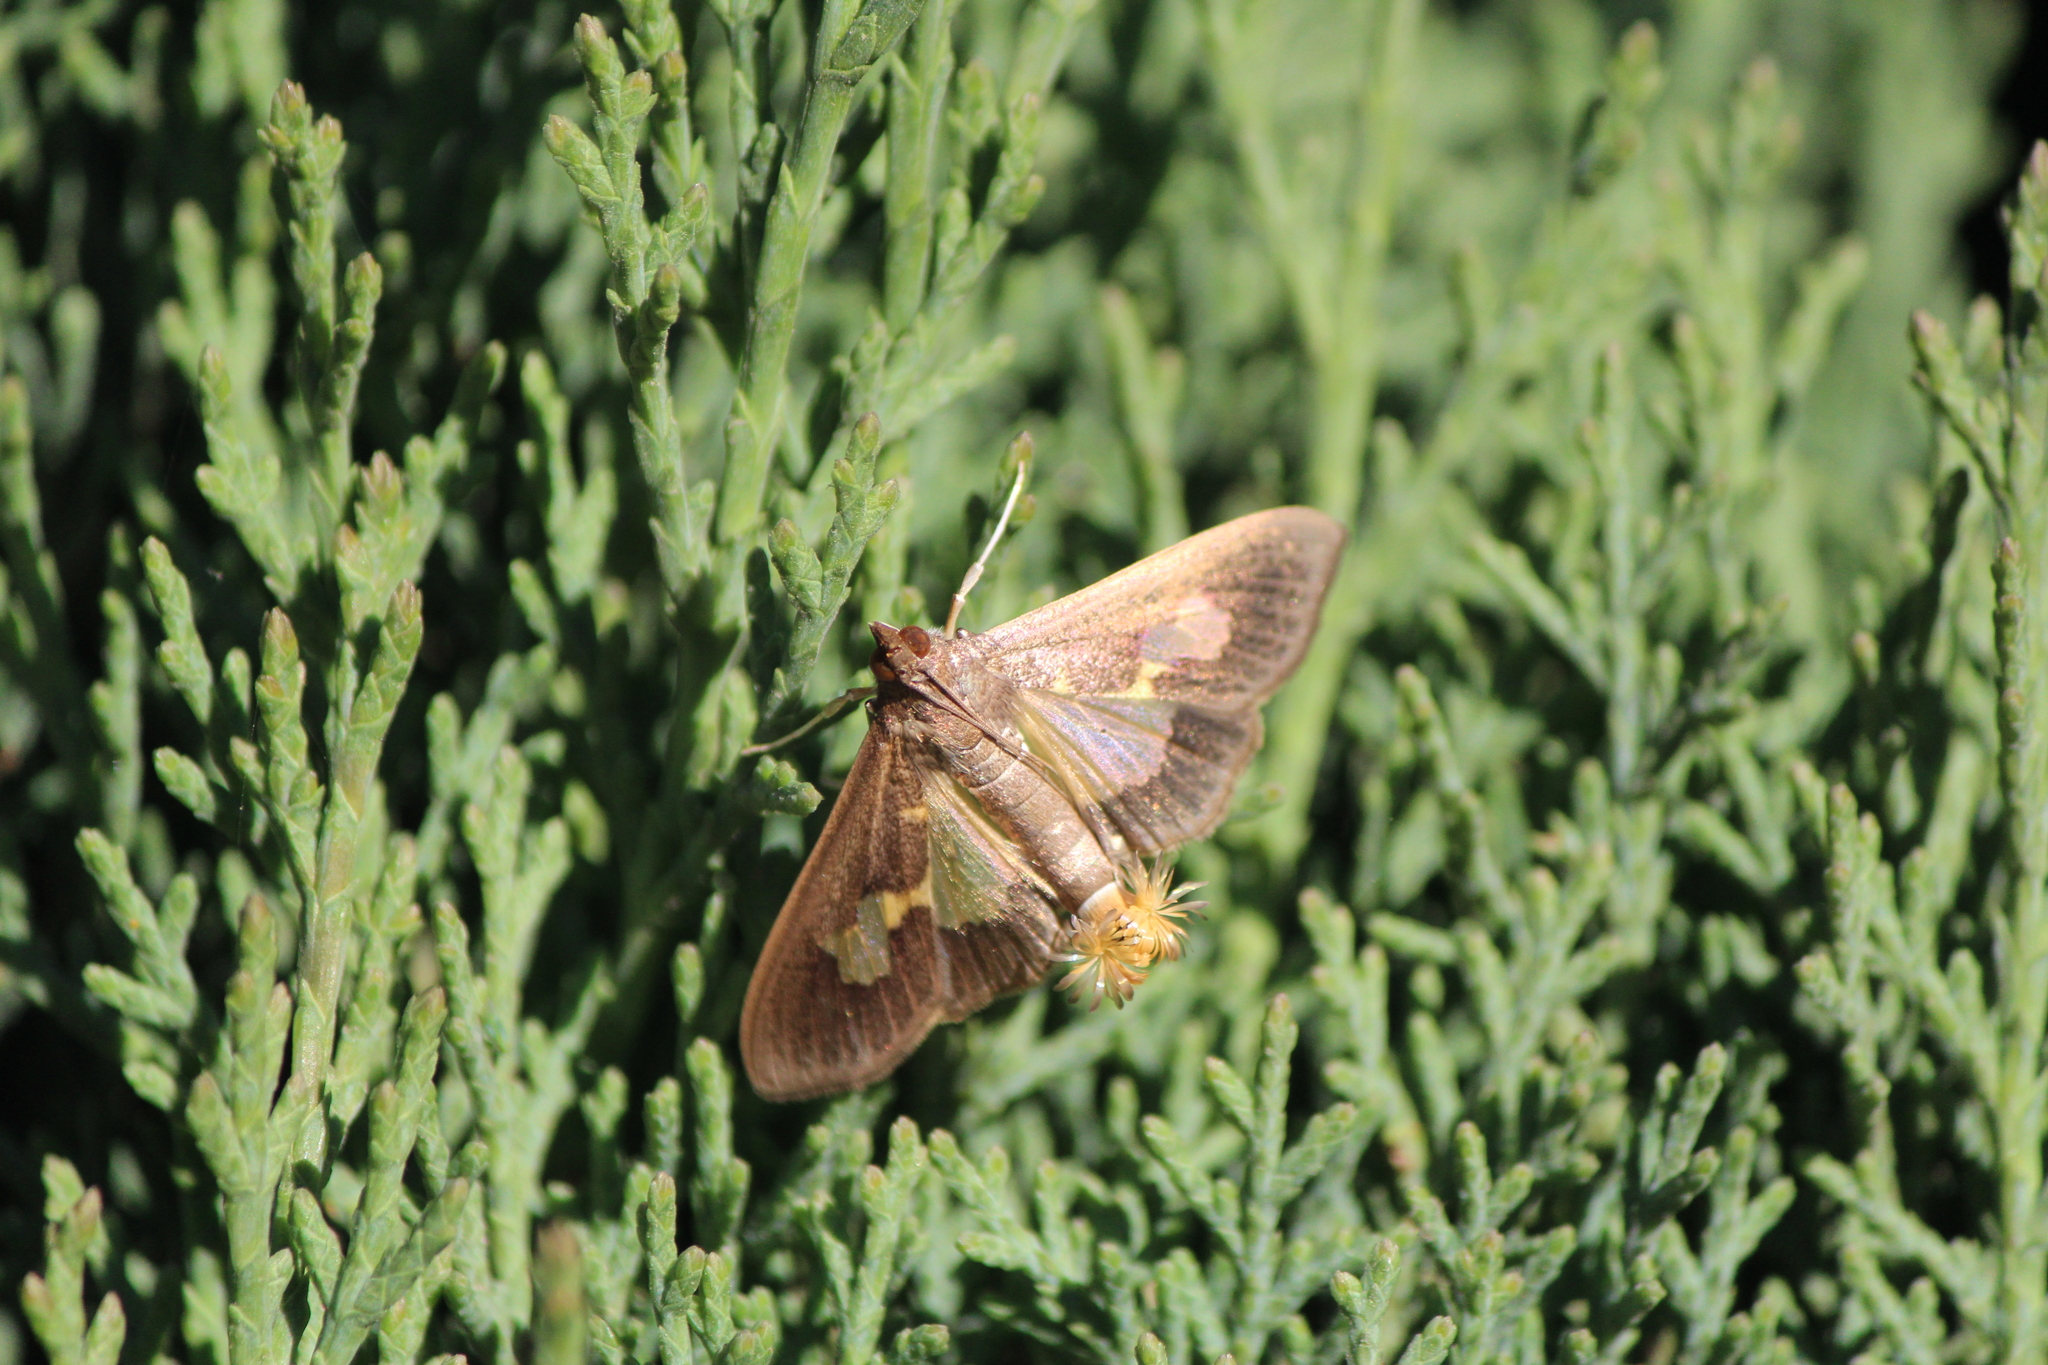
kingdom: Animalia
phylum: Arthropoda
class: Insecta
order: Lepidoptera
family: Crambidae
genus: Cryptographis
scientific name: Cryptographis nitidalis
